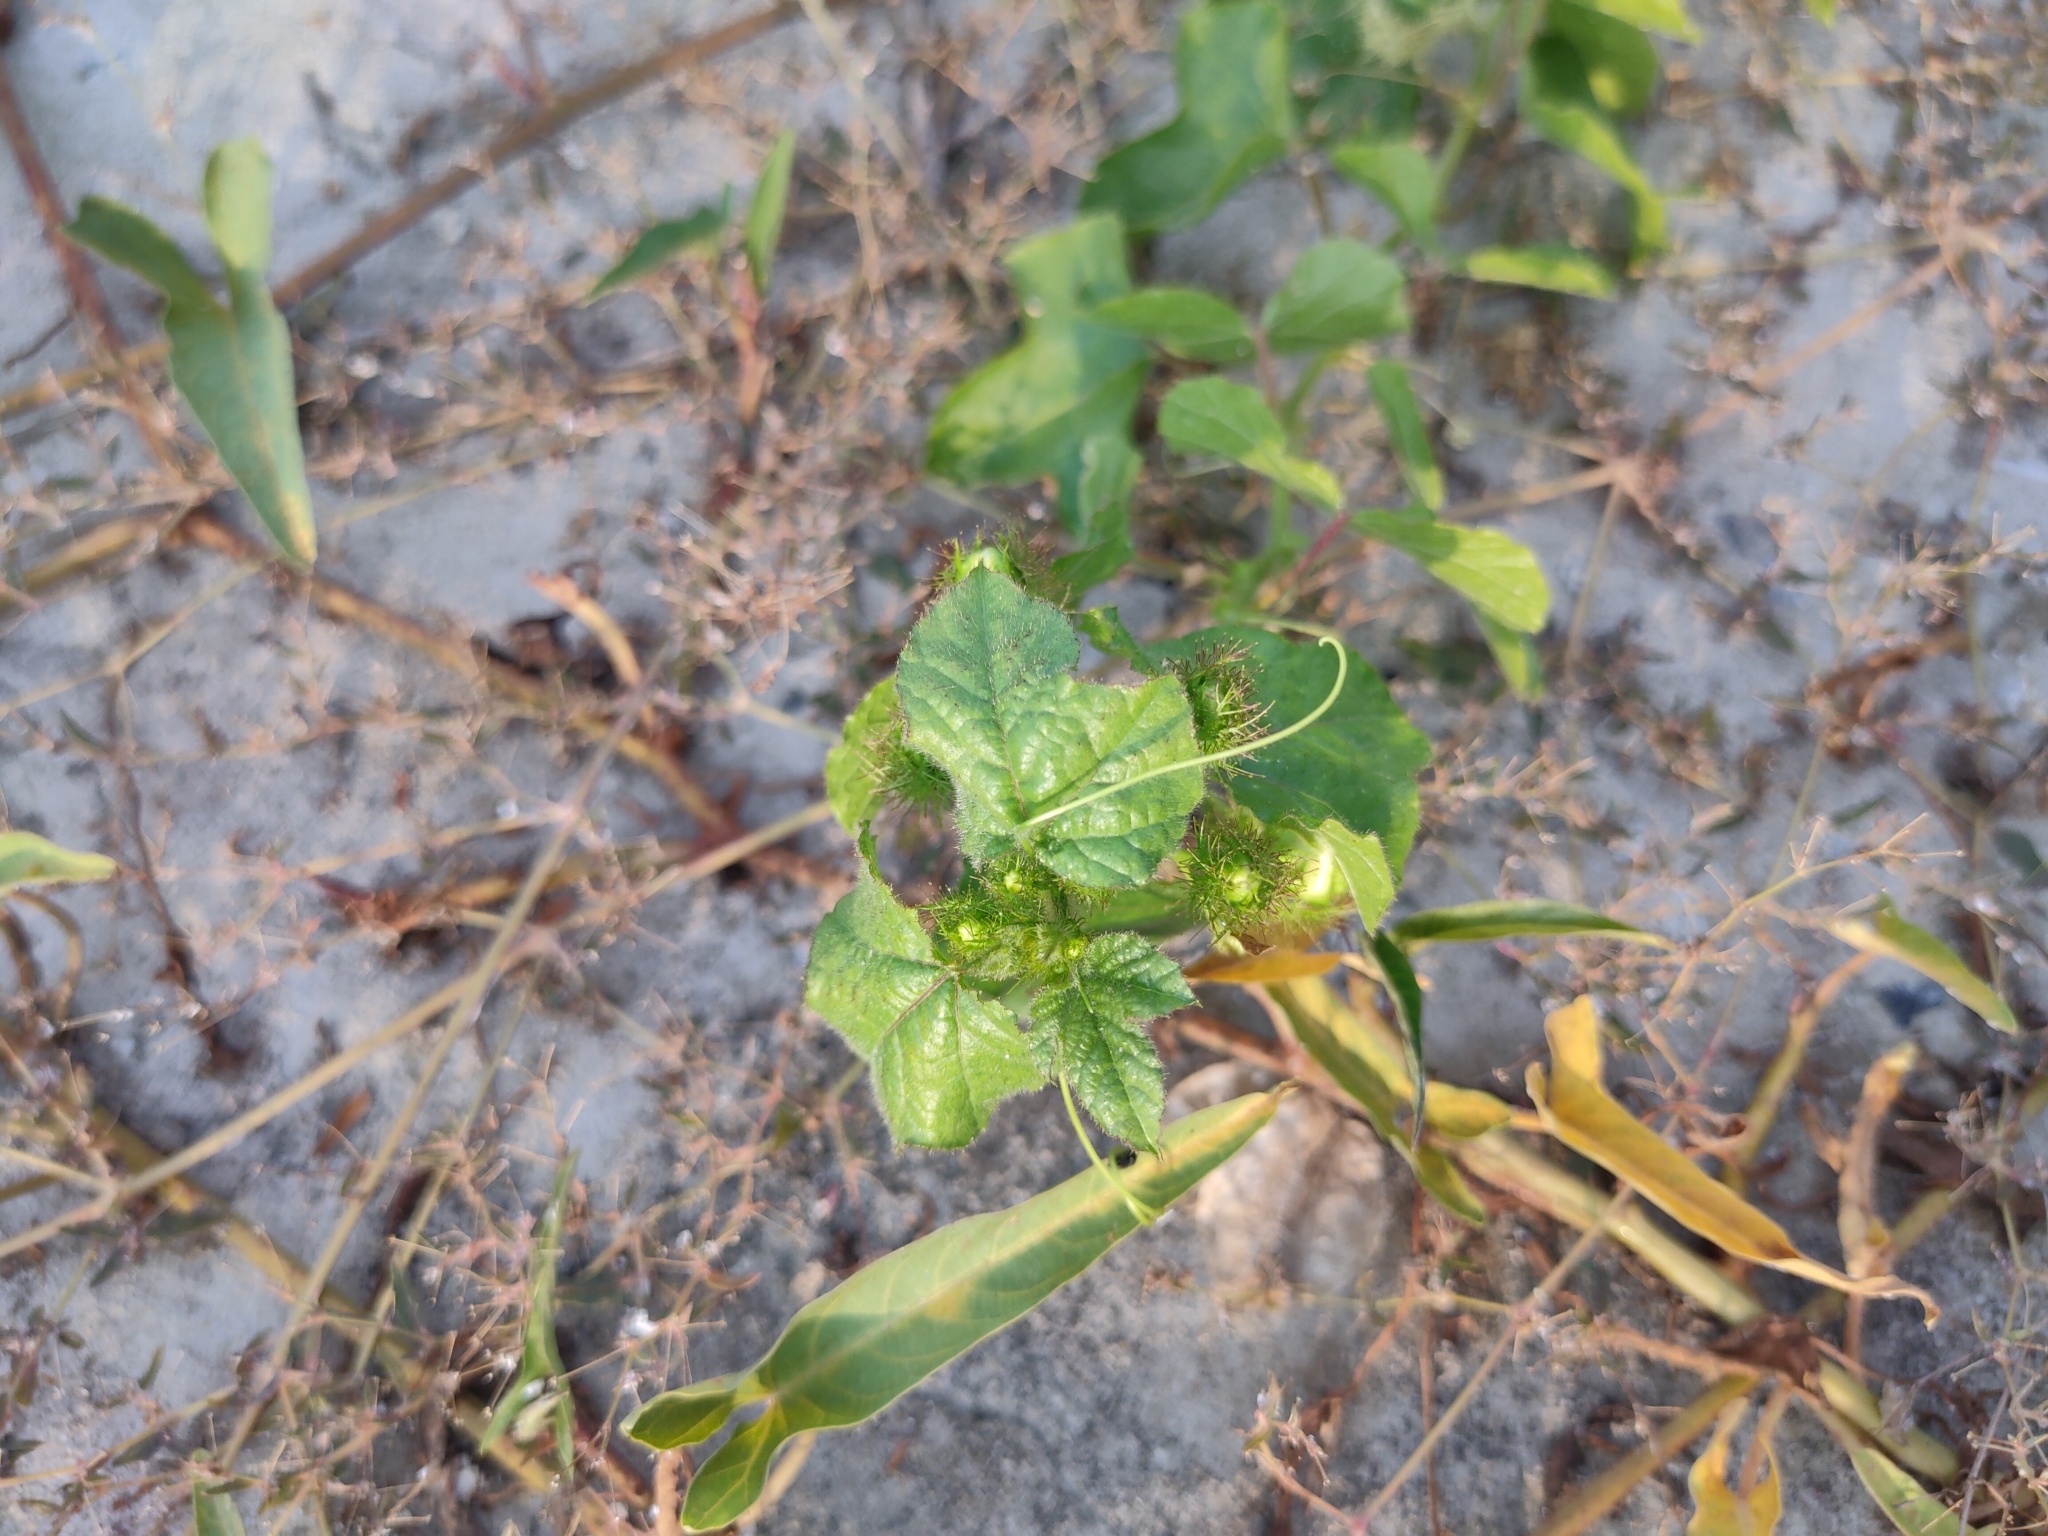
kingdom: Plantae
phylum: Tracheophyta
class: Magnoliopsida
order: Malpighiales
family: Passifloraceae
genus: Passiflora
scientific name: Passiflora foetida
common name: Fetid passionflower
